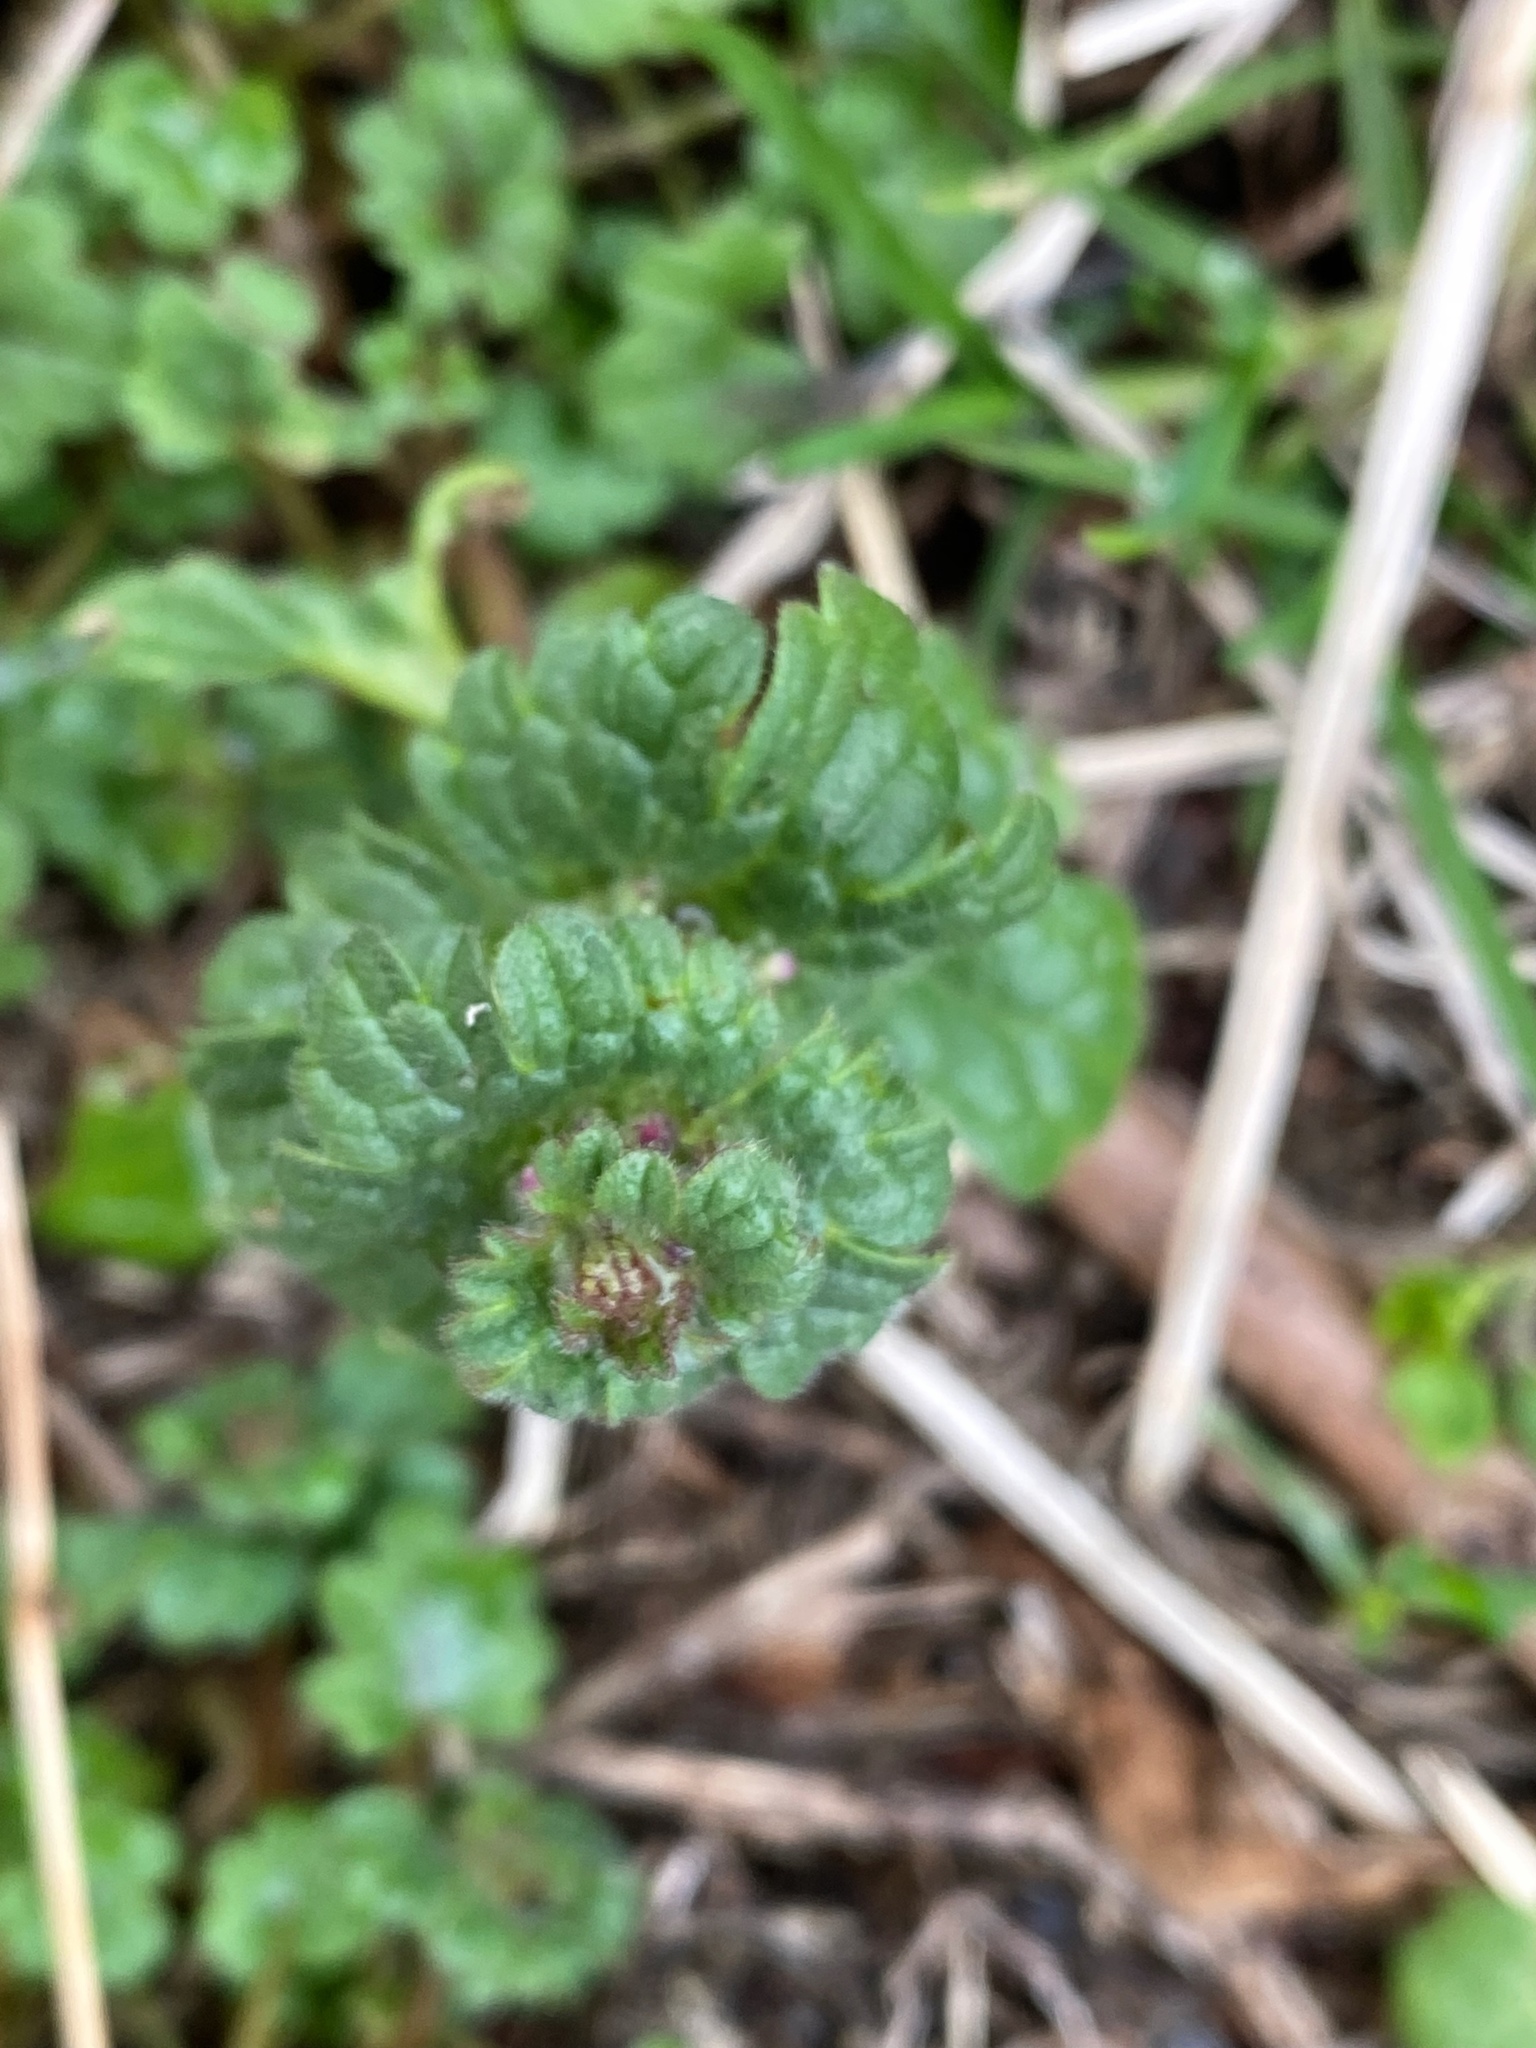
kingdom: Plantae
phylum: Tracheophyta
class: Magnoliopsida
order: Lamiales
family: Lamiaceae
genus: Lamium
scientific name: Lamium amplexicaule
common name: Henbit dead-nettle
